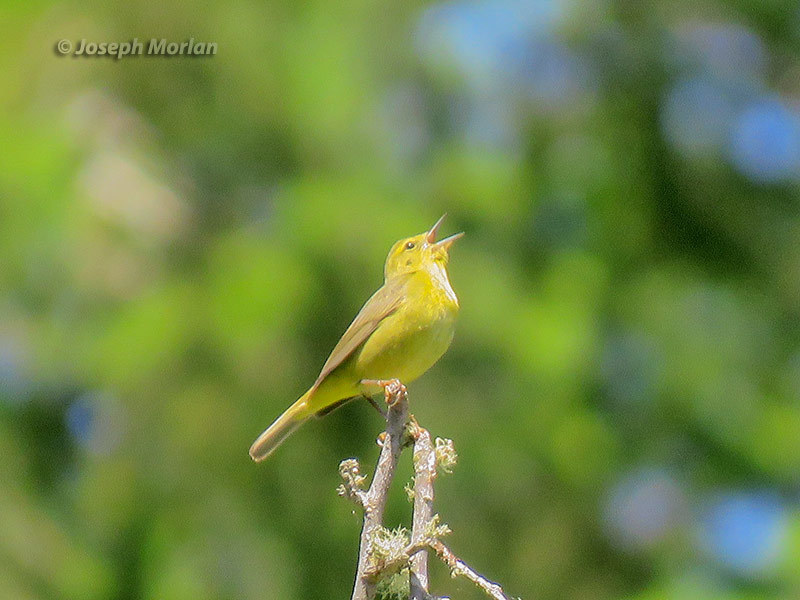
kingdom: Animalia
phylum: Chordata
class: Aves
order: Passeriformes
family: Parulidae
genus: Leiothlypis
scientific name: Leiothlypis celata
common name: Orange-crowned warbler
